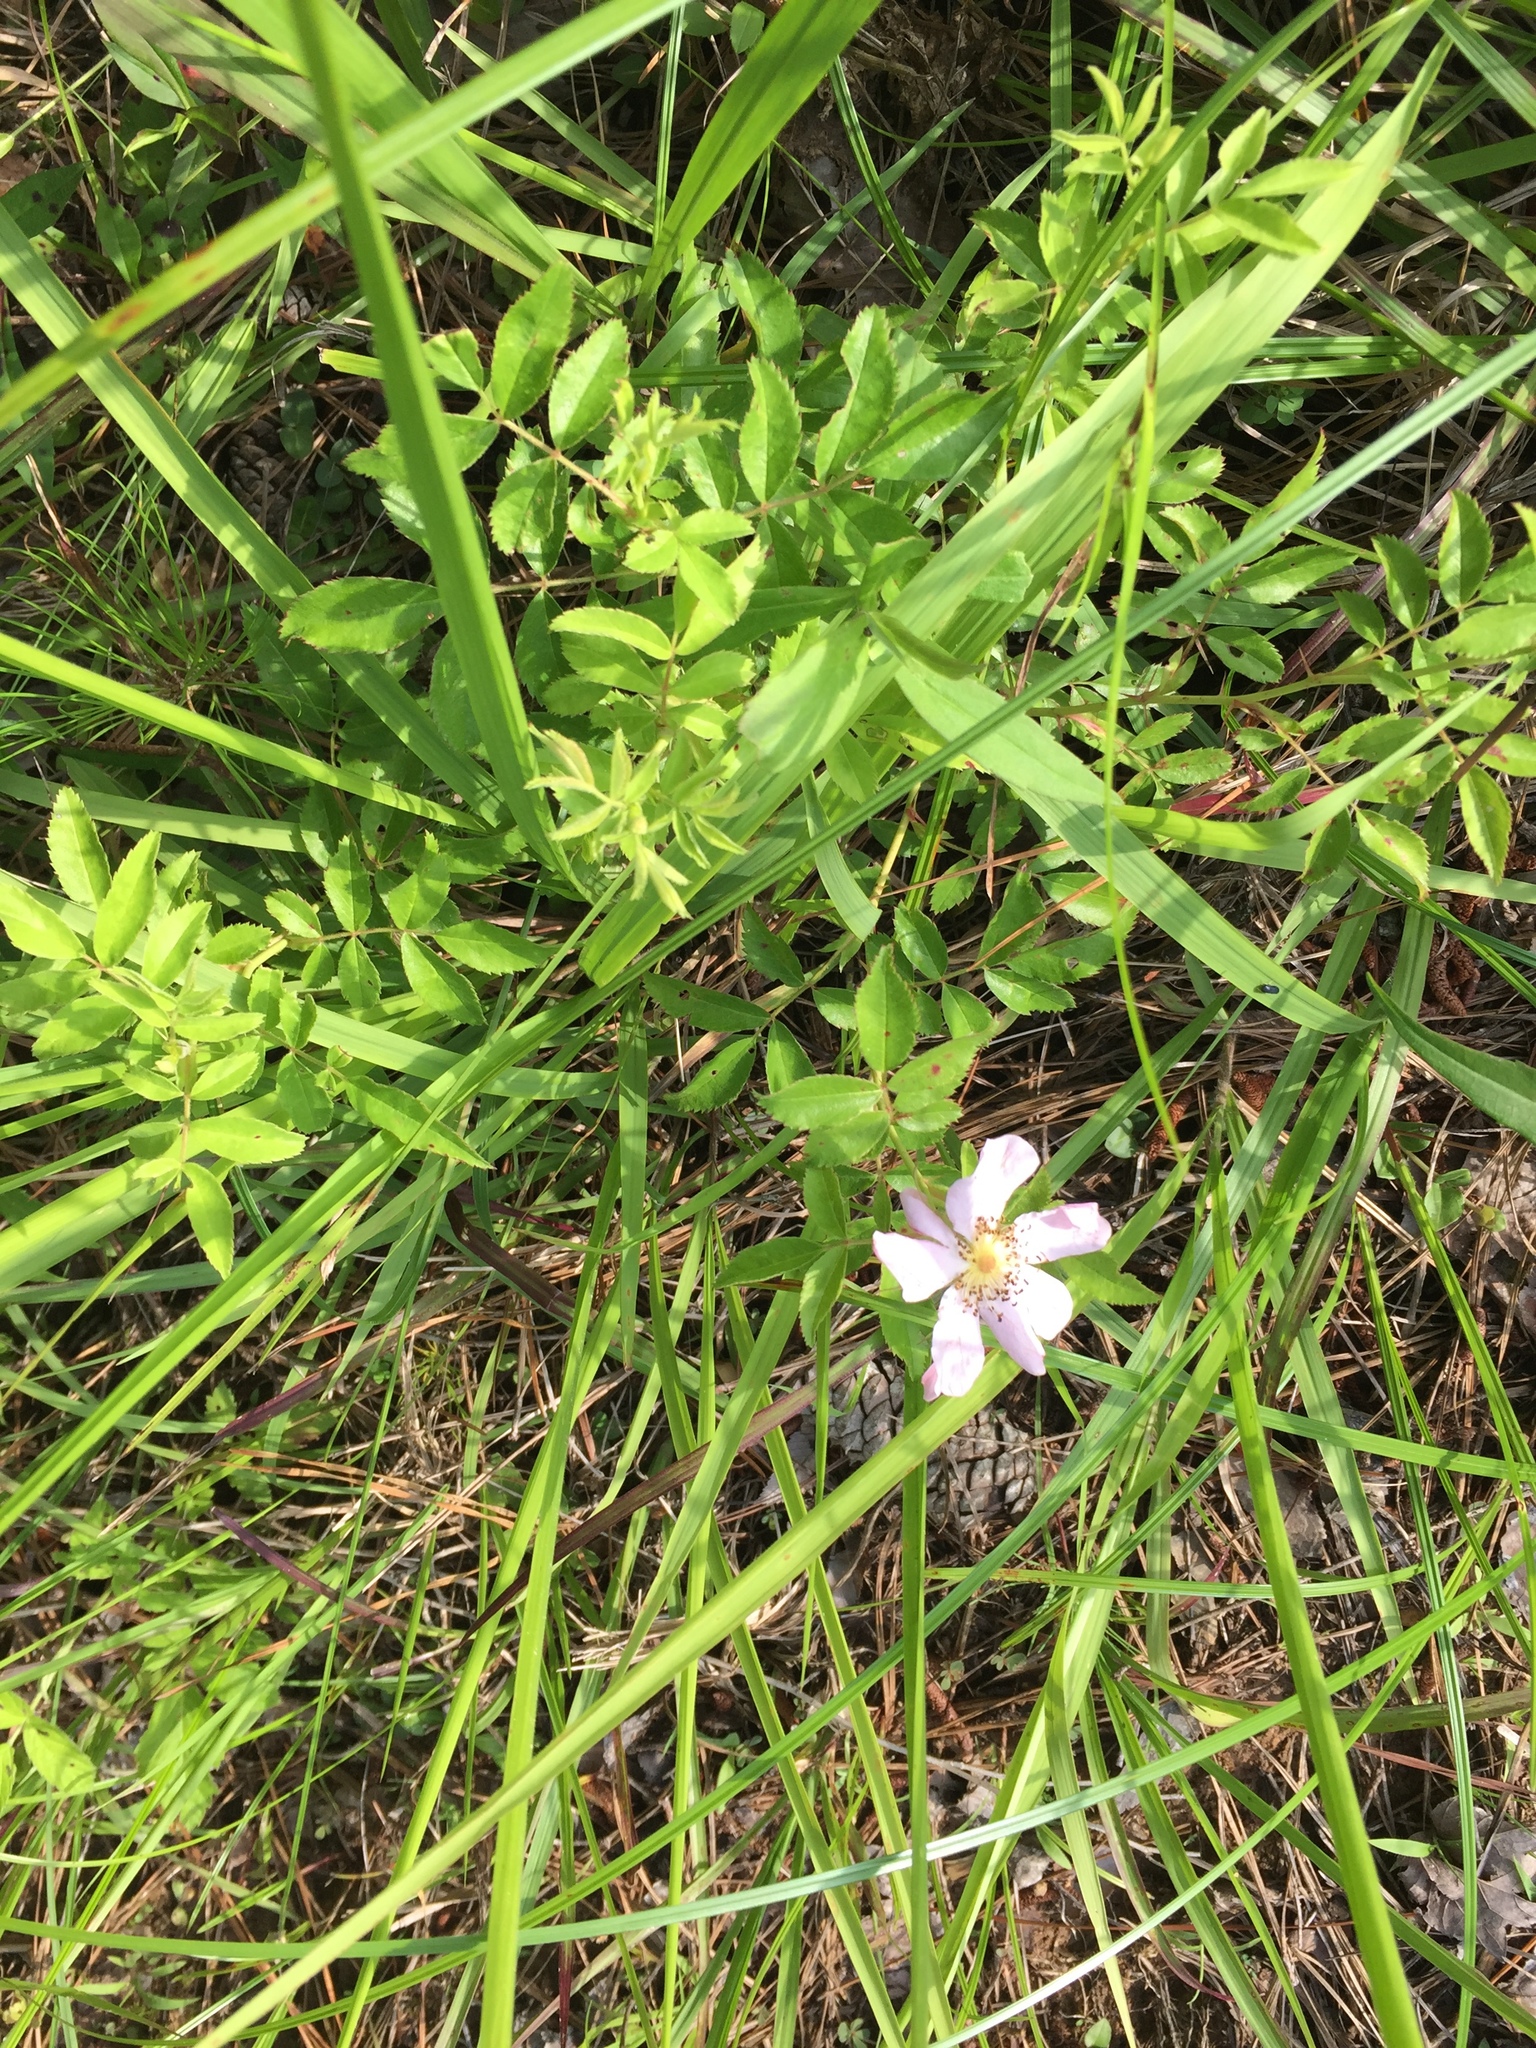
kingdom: Plantae
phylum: Tracheophyta
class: Magnoliopsida
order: Rosales
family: Rosaceae
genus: Rosa
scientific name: Rosa carolina
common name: Pasture rose
